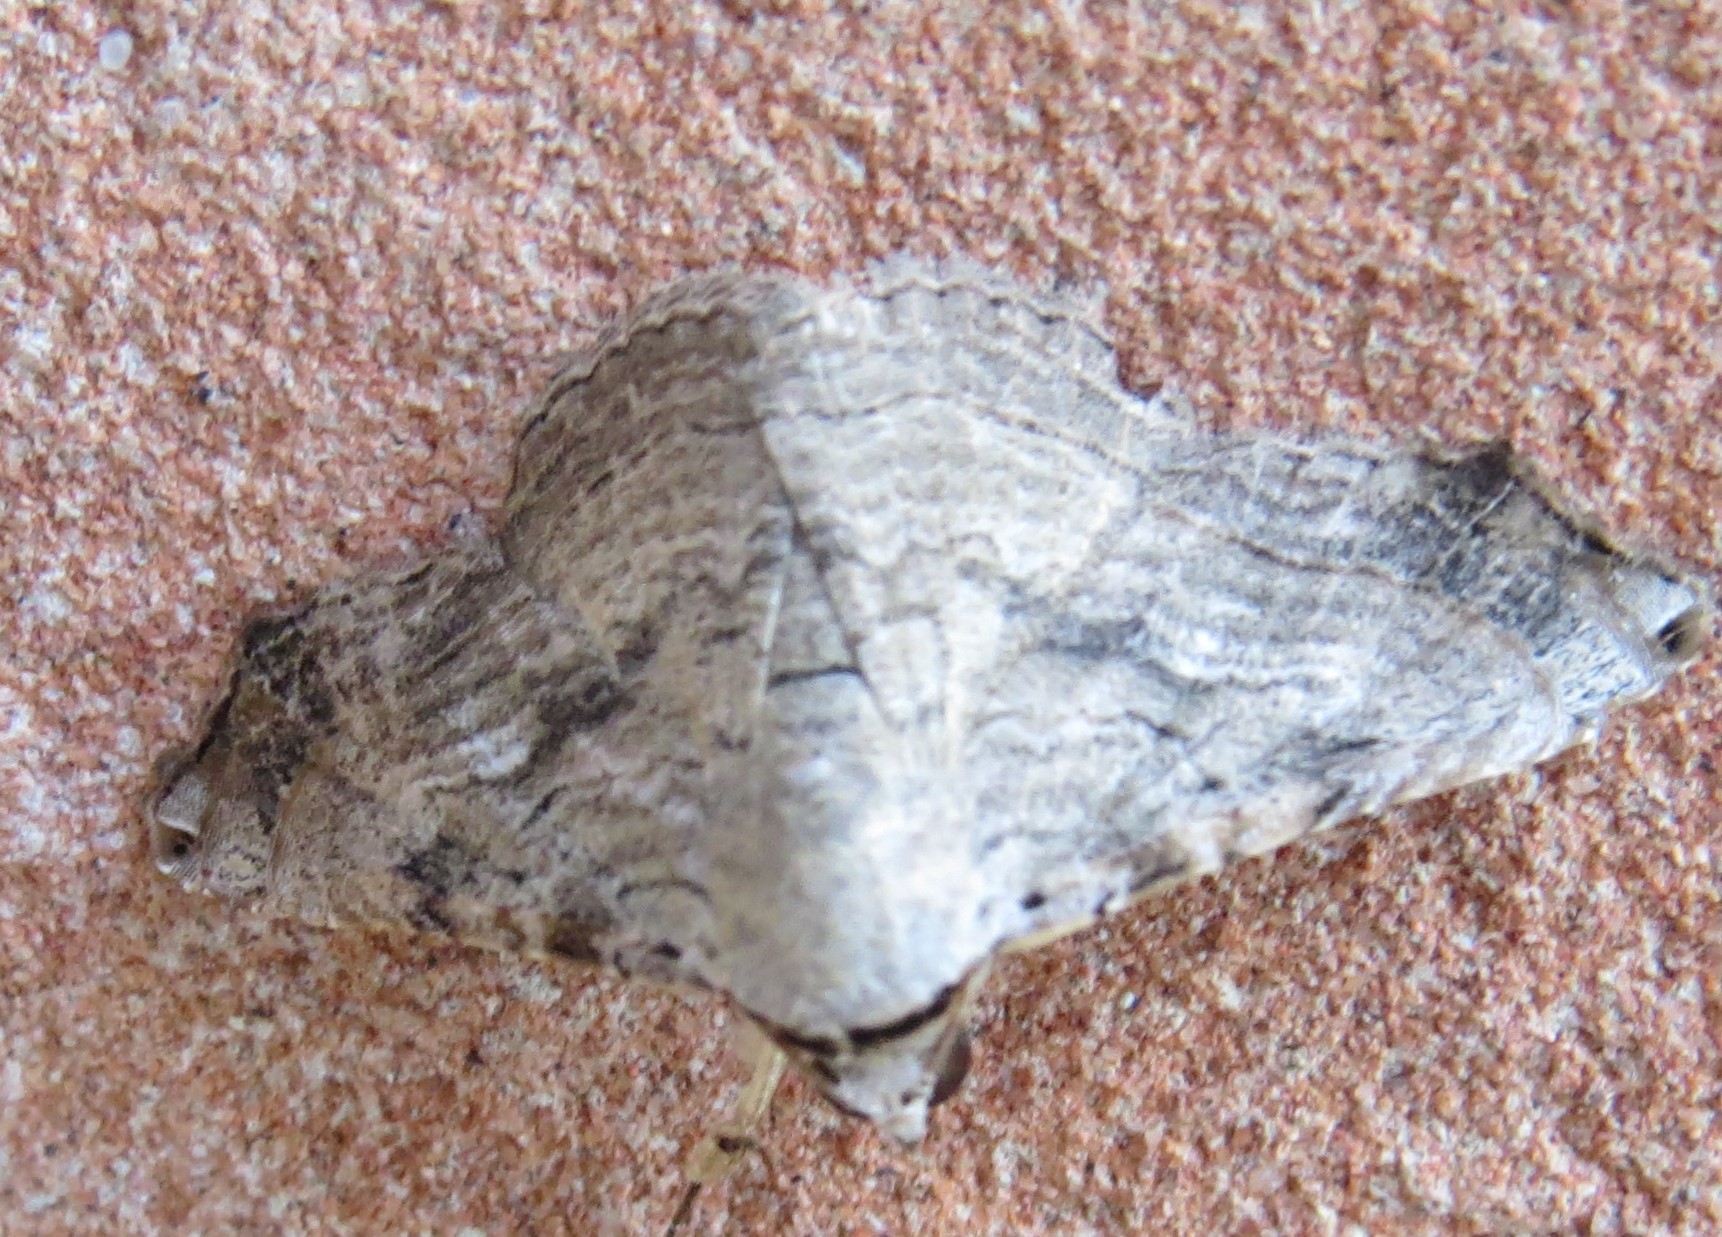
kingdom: Animalia
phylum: Arthropoda
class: Insecta
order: Lepidoptera
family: Erebidae
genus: Tyrissa
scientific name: Tyrissa multilinea
